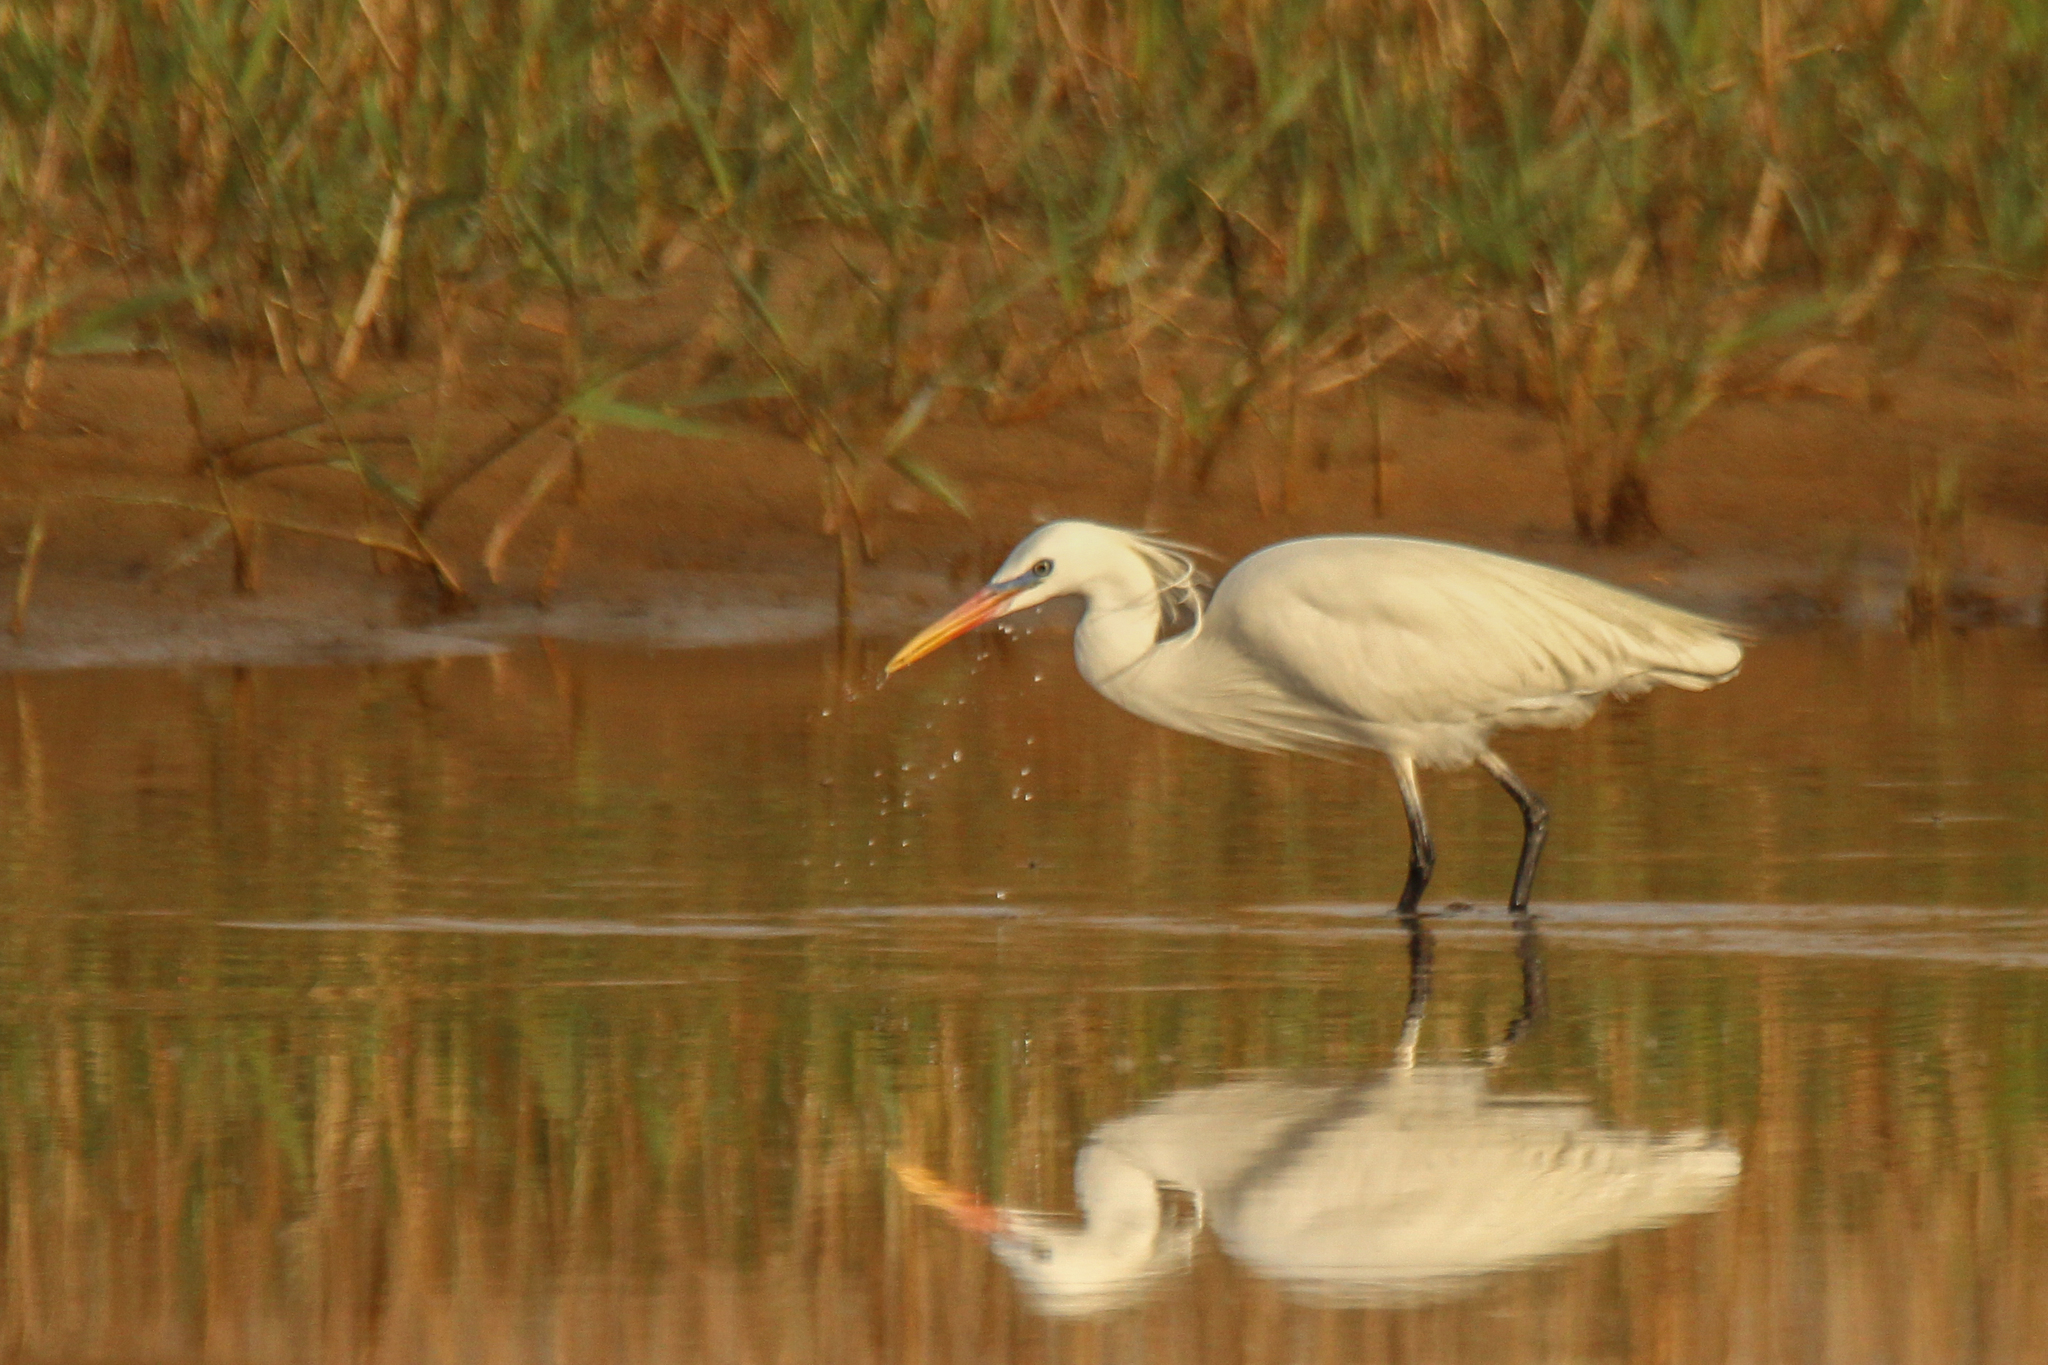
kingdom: Animalia
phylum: Chordata
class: Aves
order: Pelecaniformes
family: Ardeidae
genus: Egretta
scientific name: Egretta eulophotes
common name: Chinese egret
